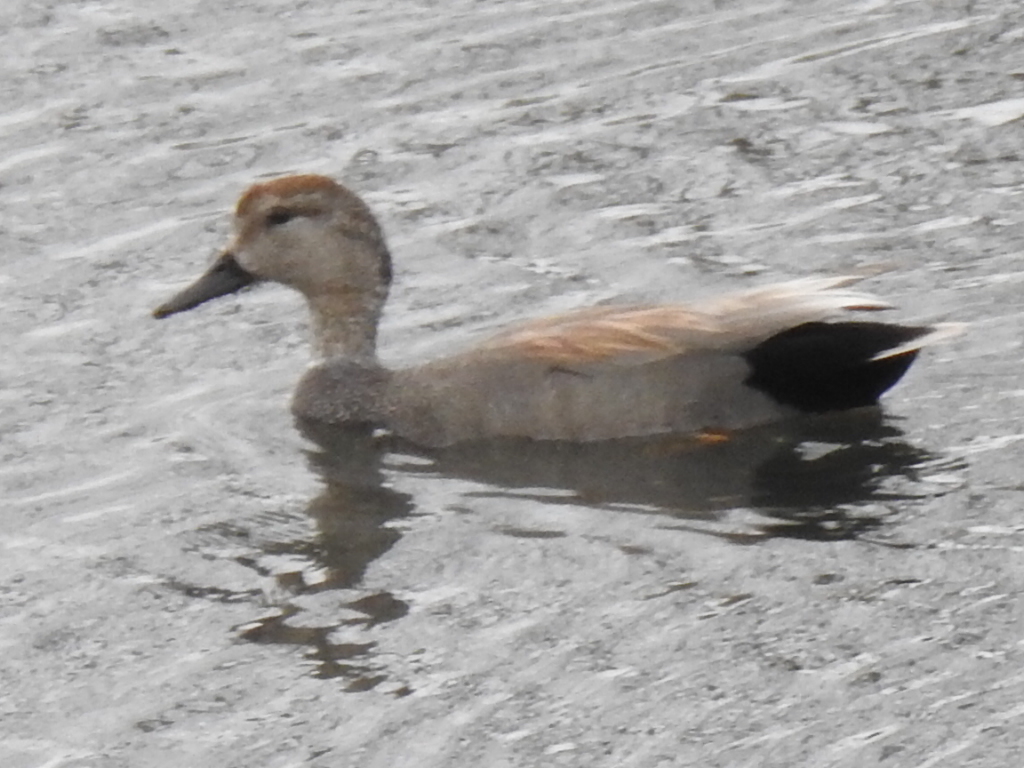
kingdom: Animalia
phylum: Chordata
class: Aves
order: Anseriformes
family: Anatidae
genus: Mareca
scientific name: Mareca strepera
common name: Gadwall
